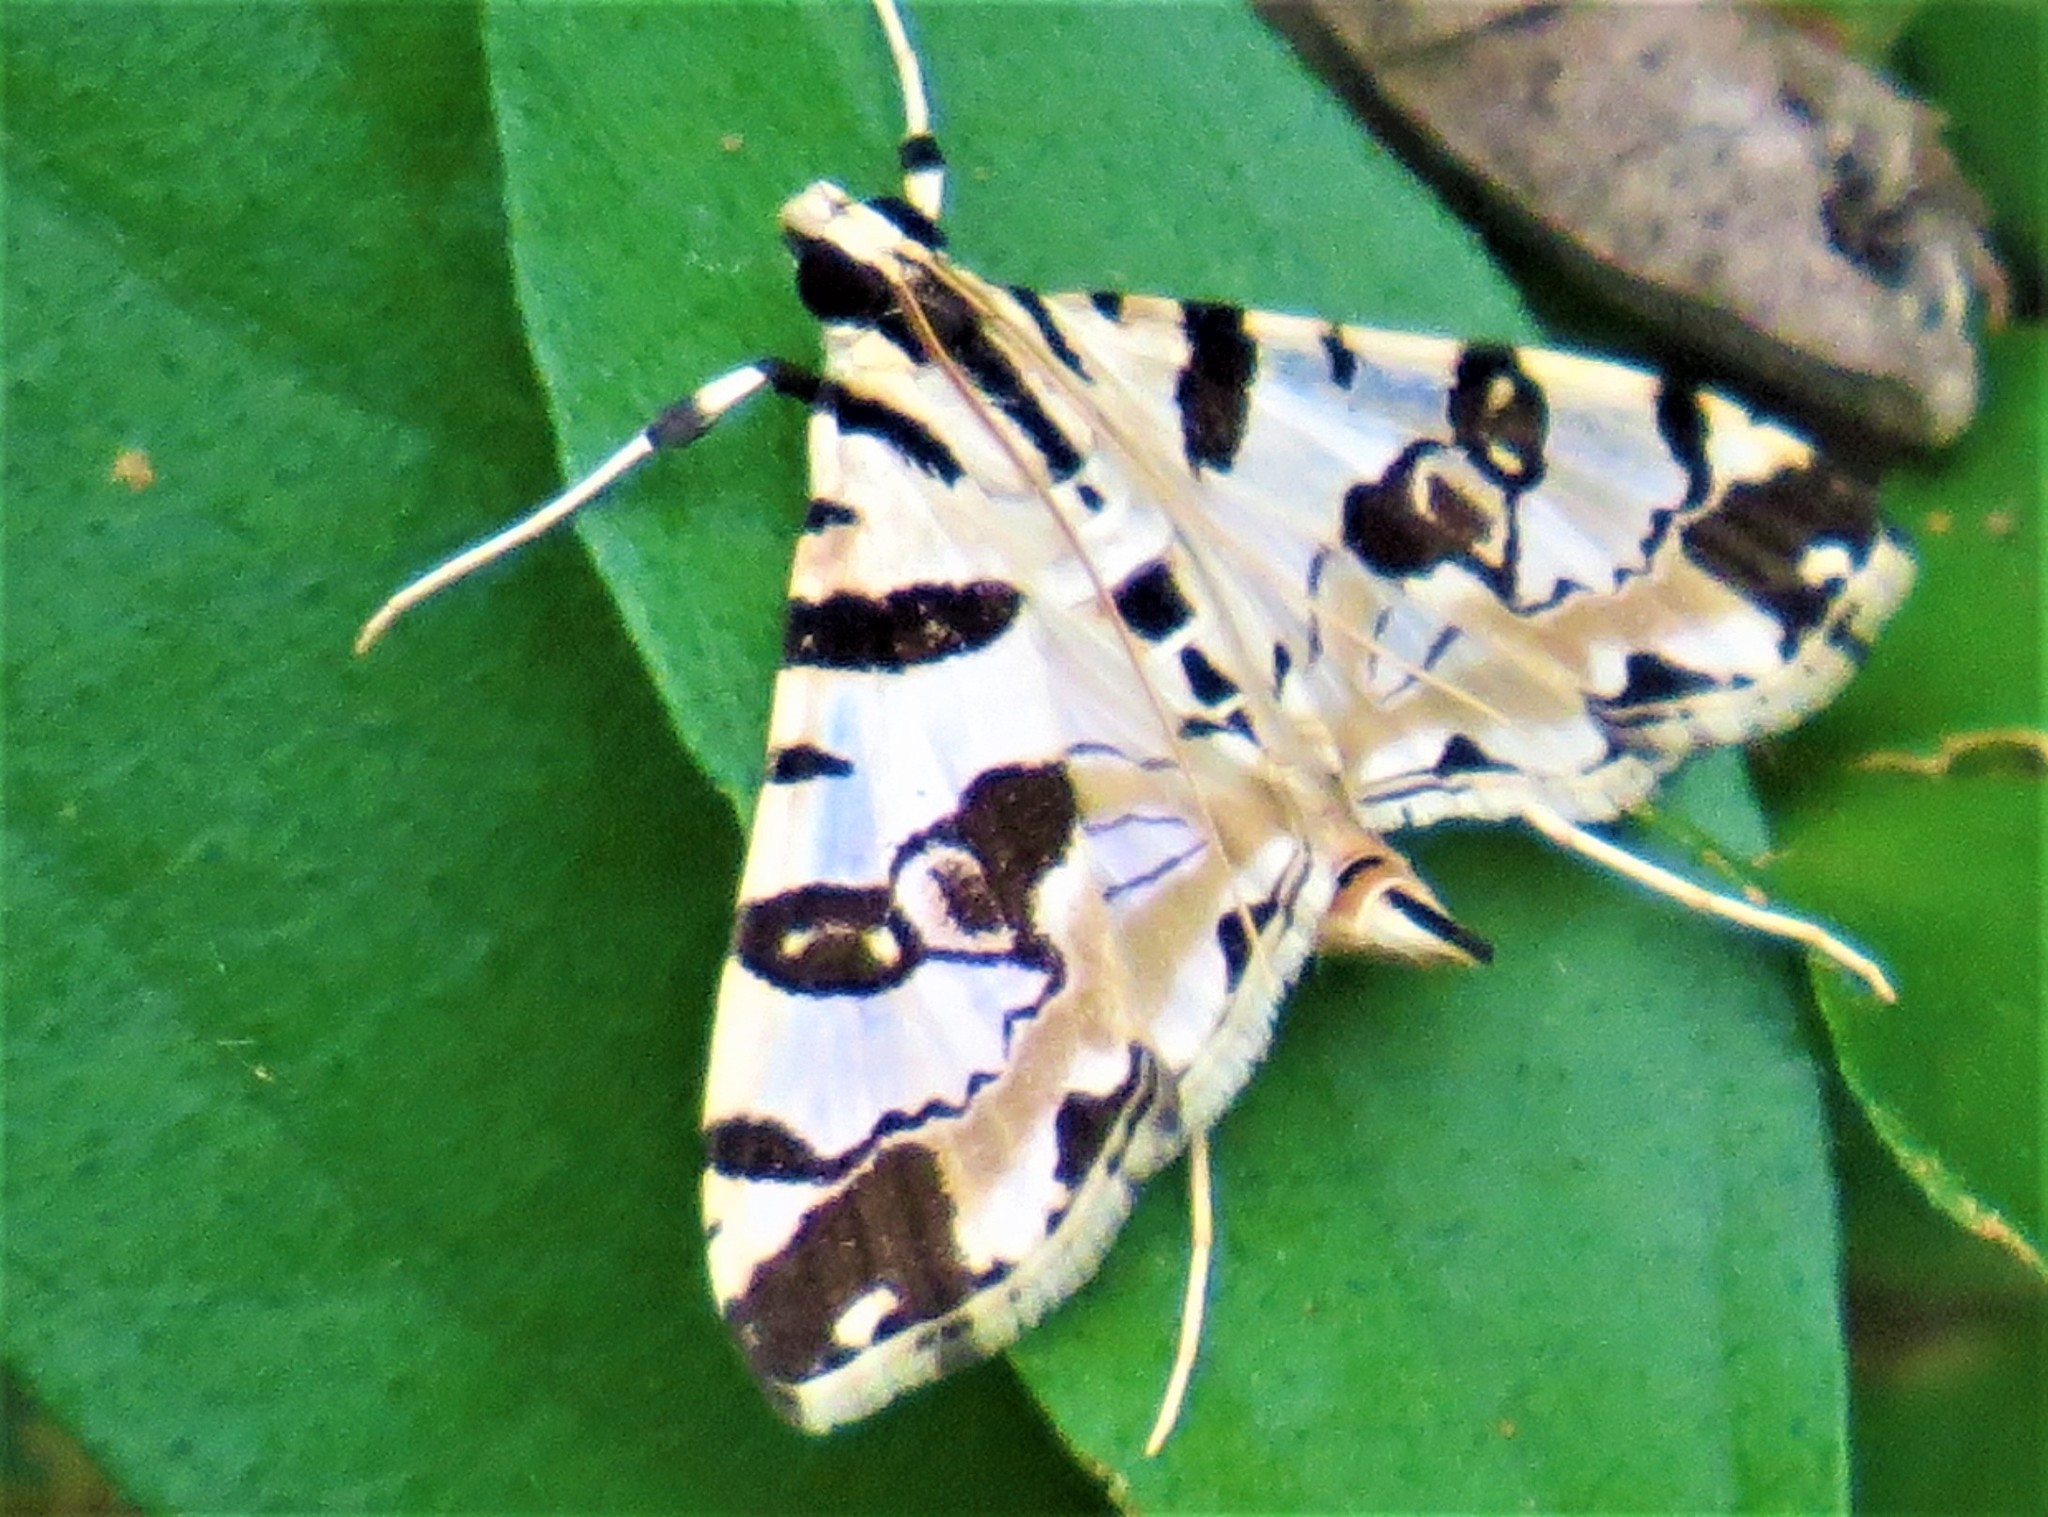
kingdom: Animalia
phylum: Arthropoda
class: Insecta
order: Lepidoptera
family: Crambidae
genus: Conchylodes
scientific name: Conchylodes salamisalis
